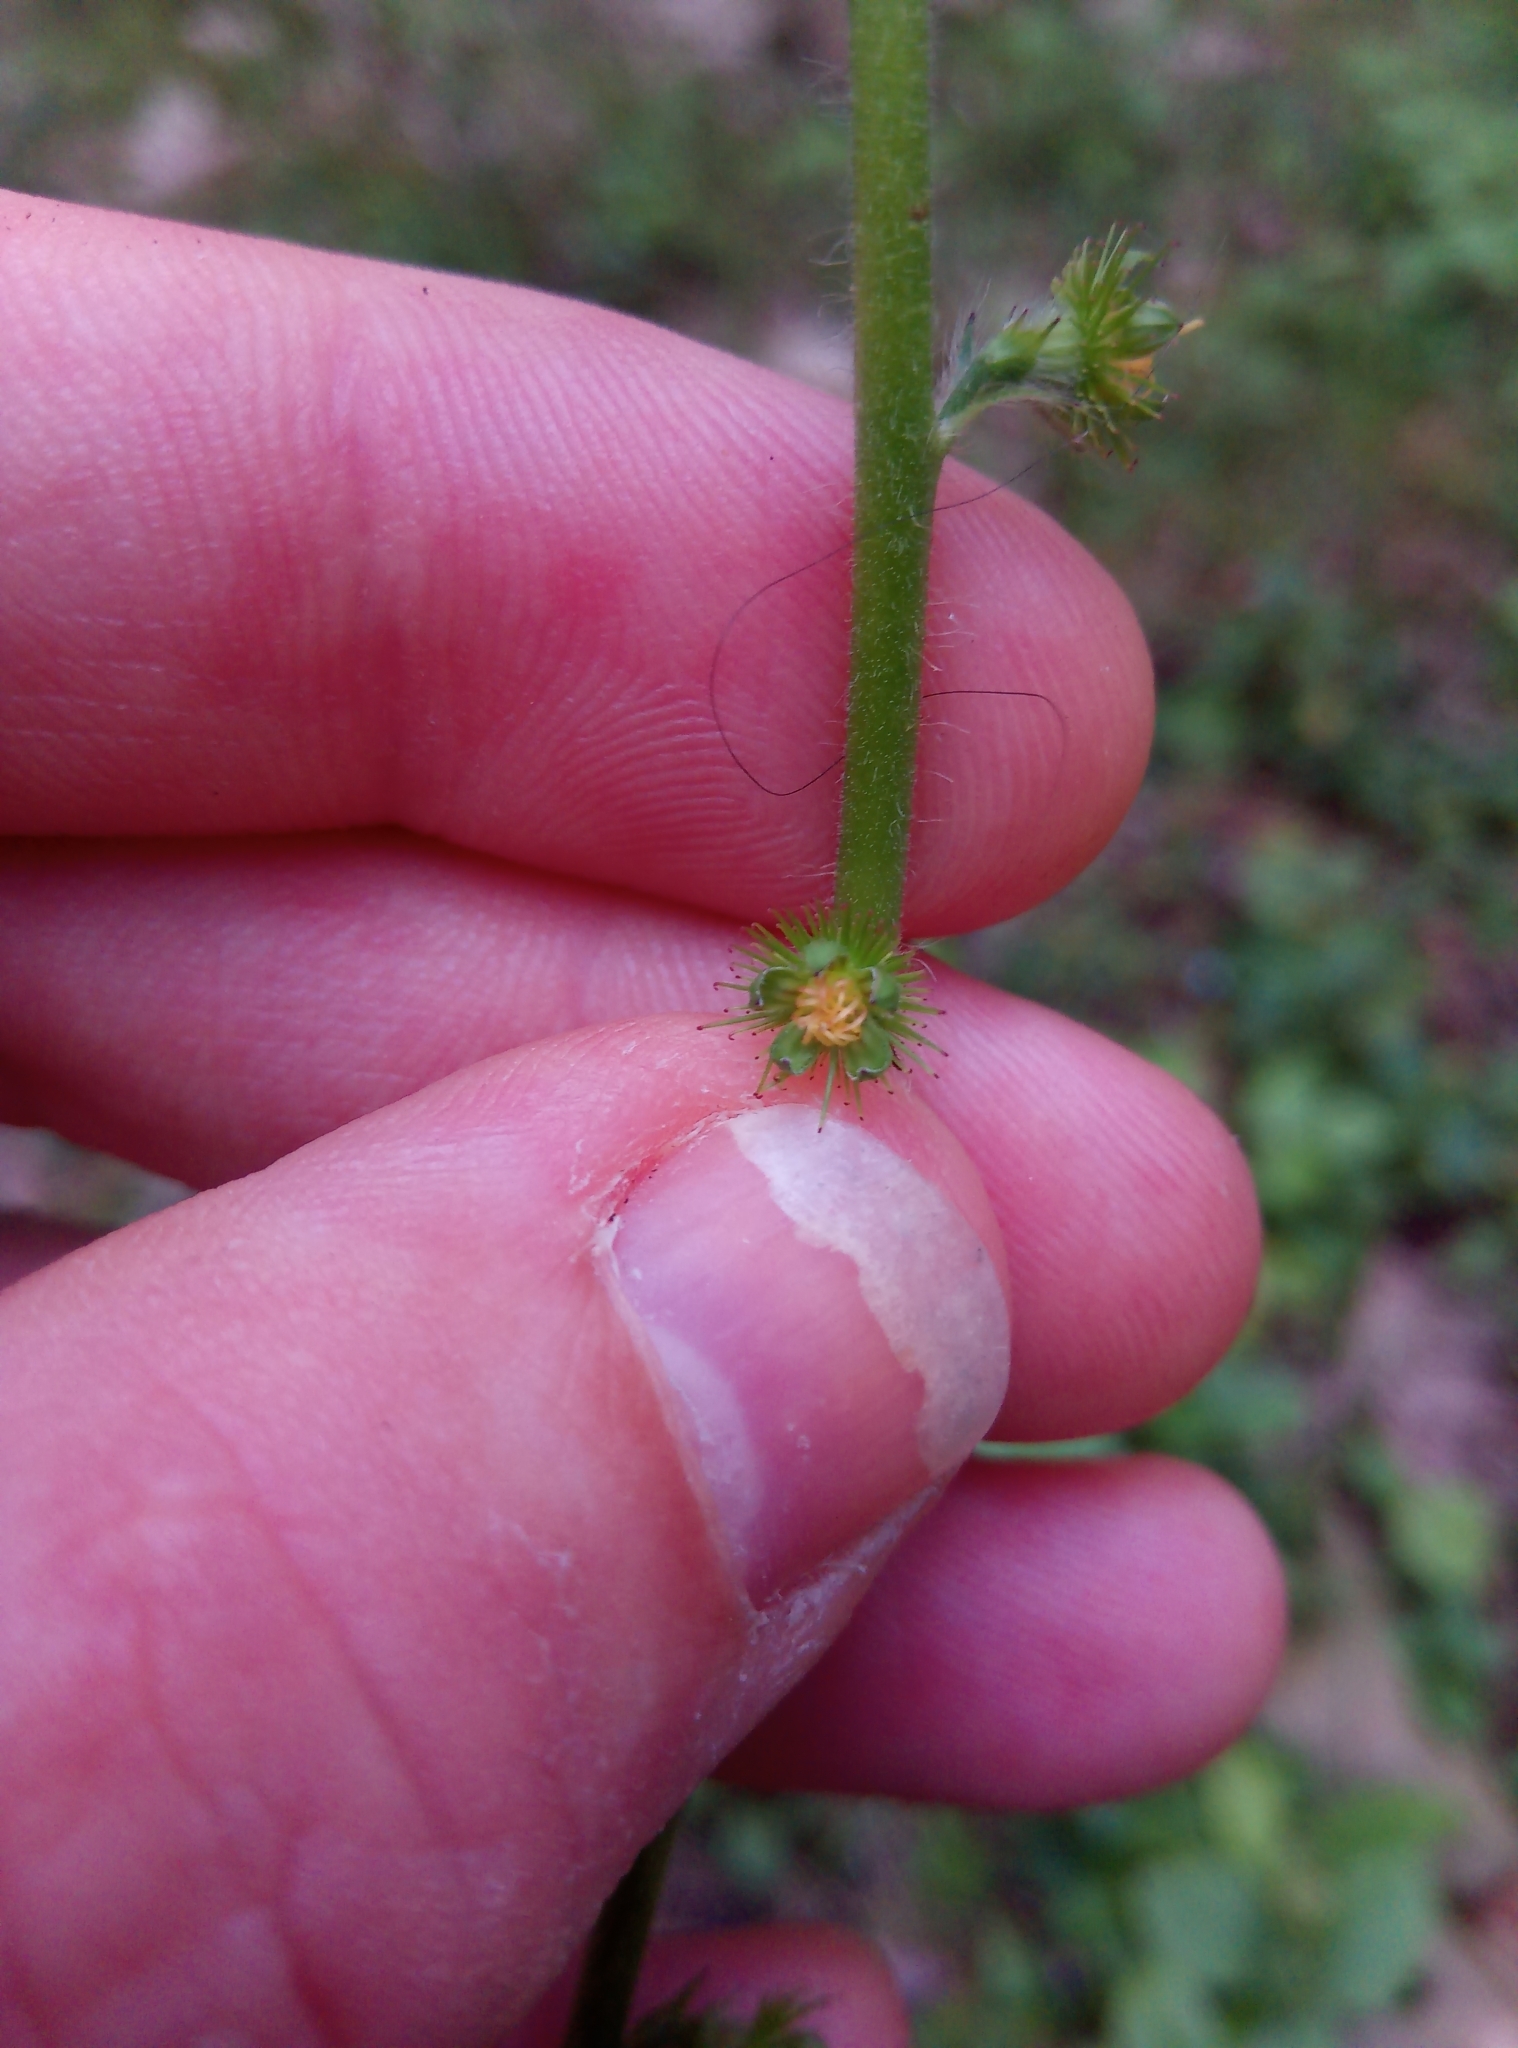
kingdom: Plantae
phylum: Tracheophyta
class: Magnoliopsida
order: Rosales
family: Rosaceae
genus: Agrimonia
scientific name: Agrimonia eupatoria
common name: Agrimony
